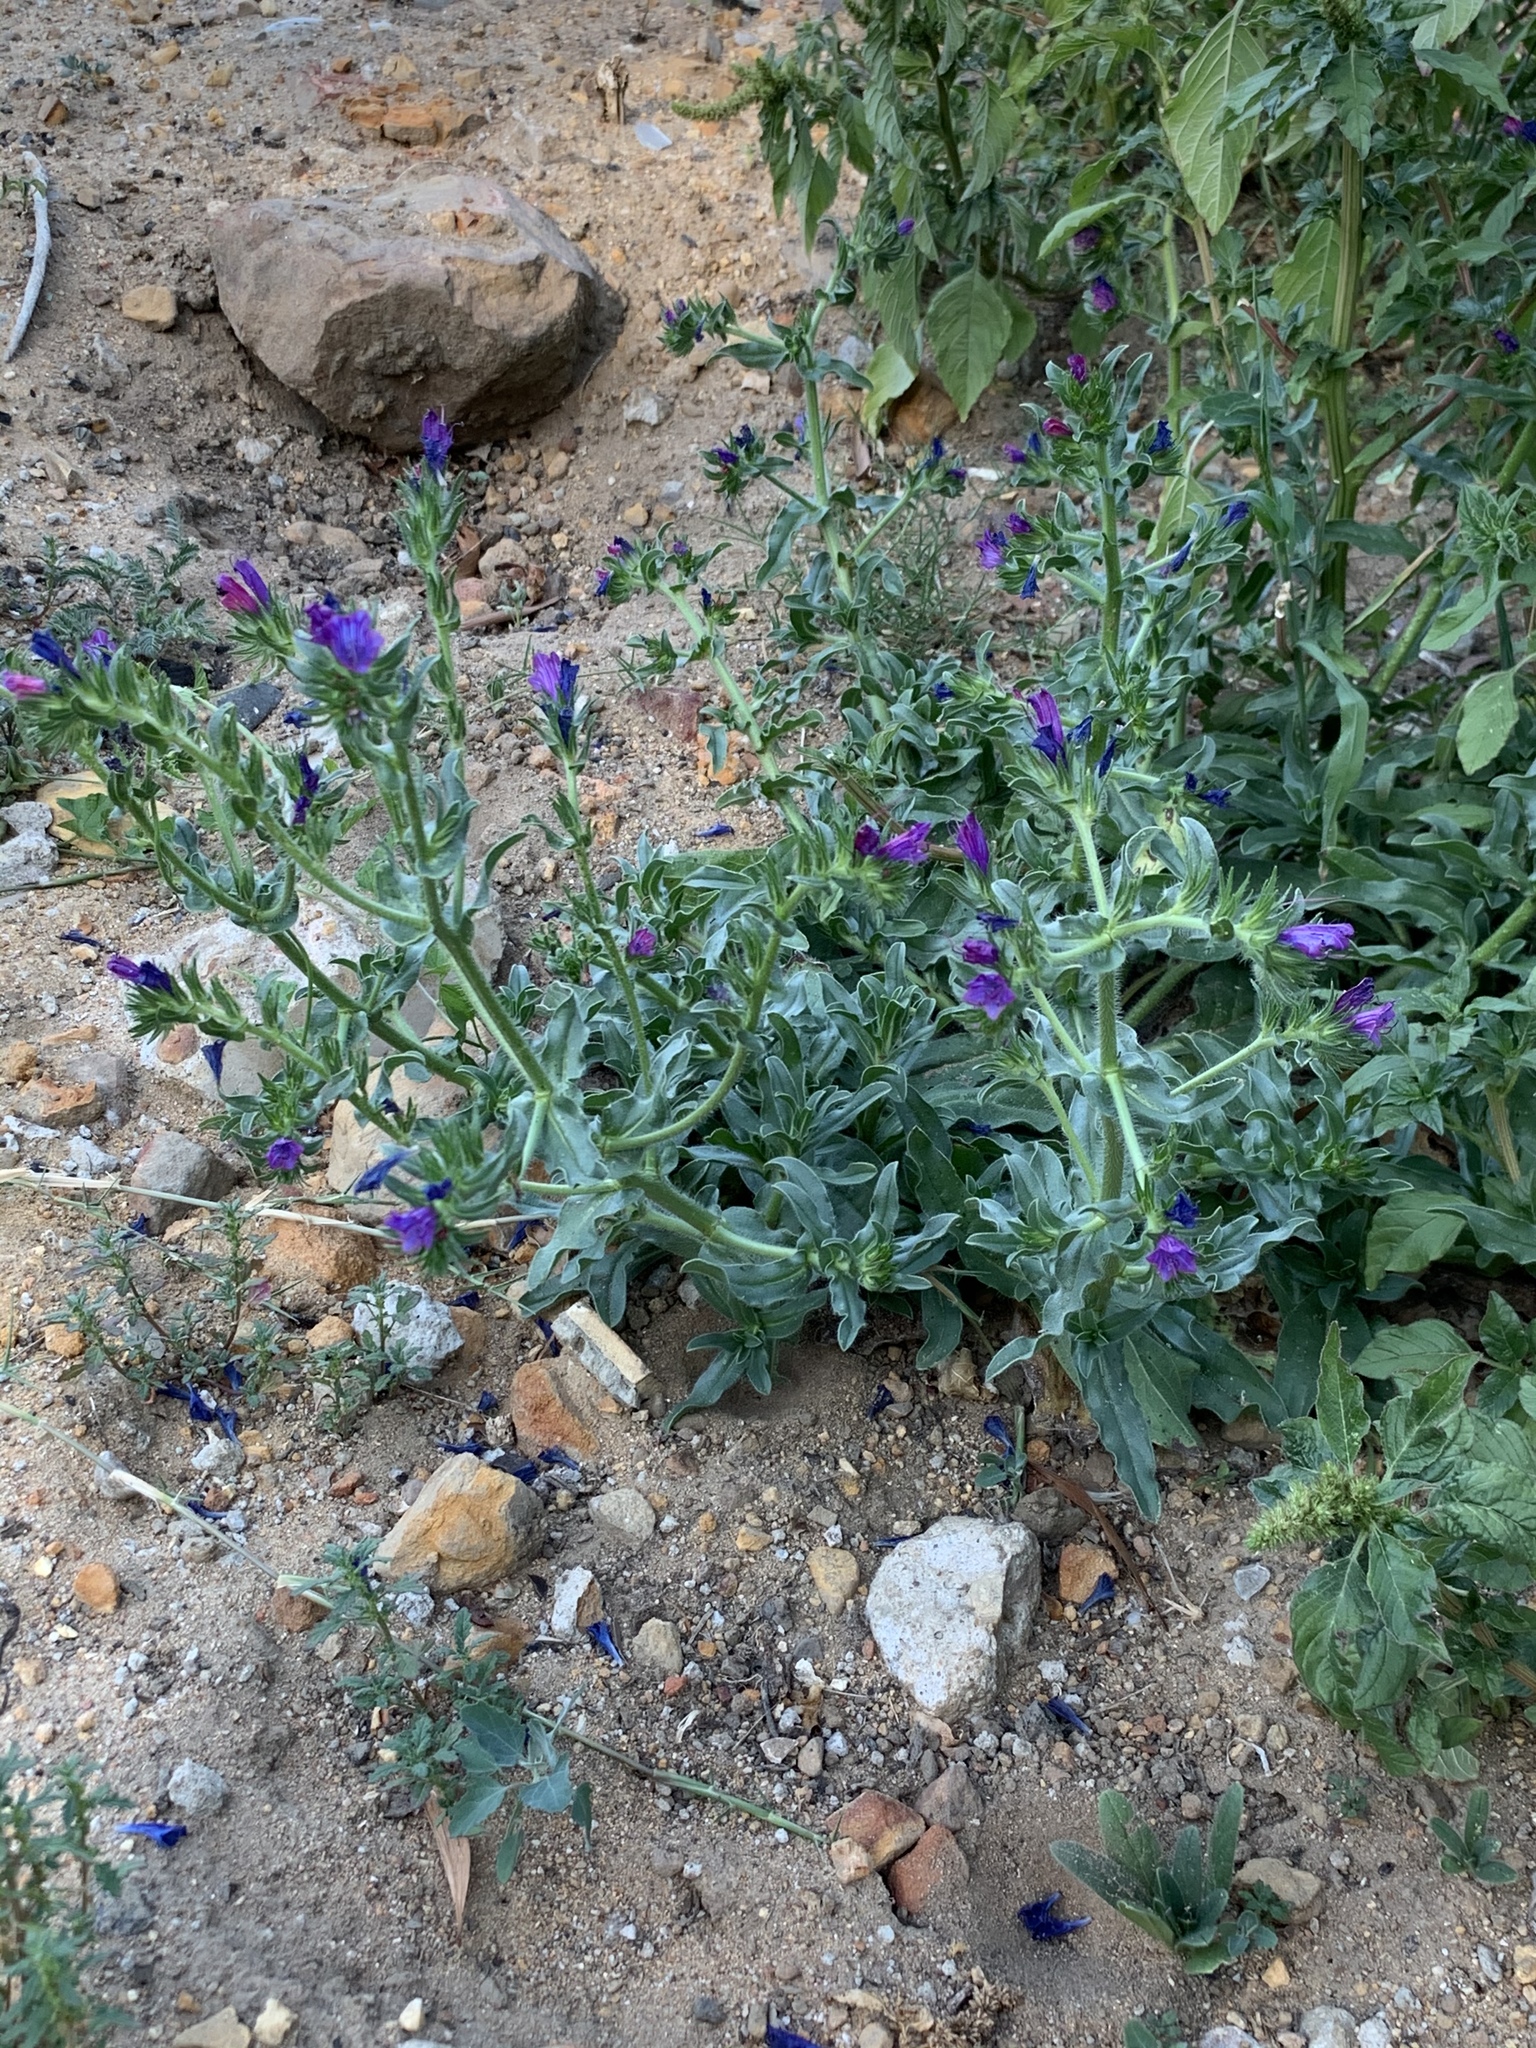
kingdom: Plantae
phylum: Tracheophyta
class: Magnoliopsida
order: Boraginales
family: Boraginaceae
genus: Echium
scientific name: Echium plantagineum
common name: Purple viper's-bugloss
